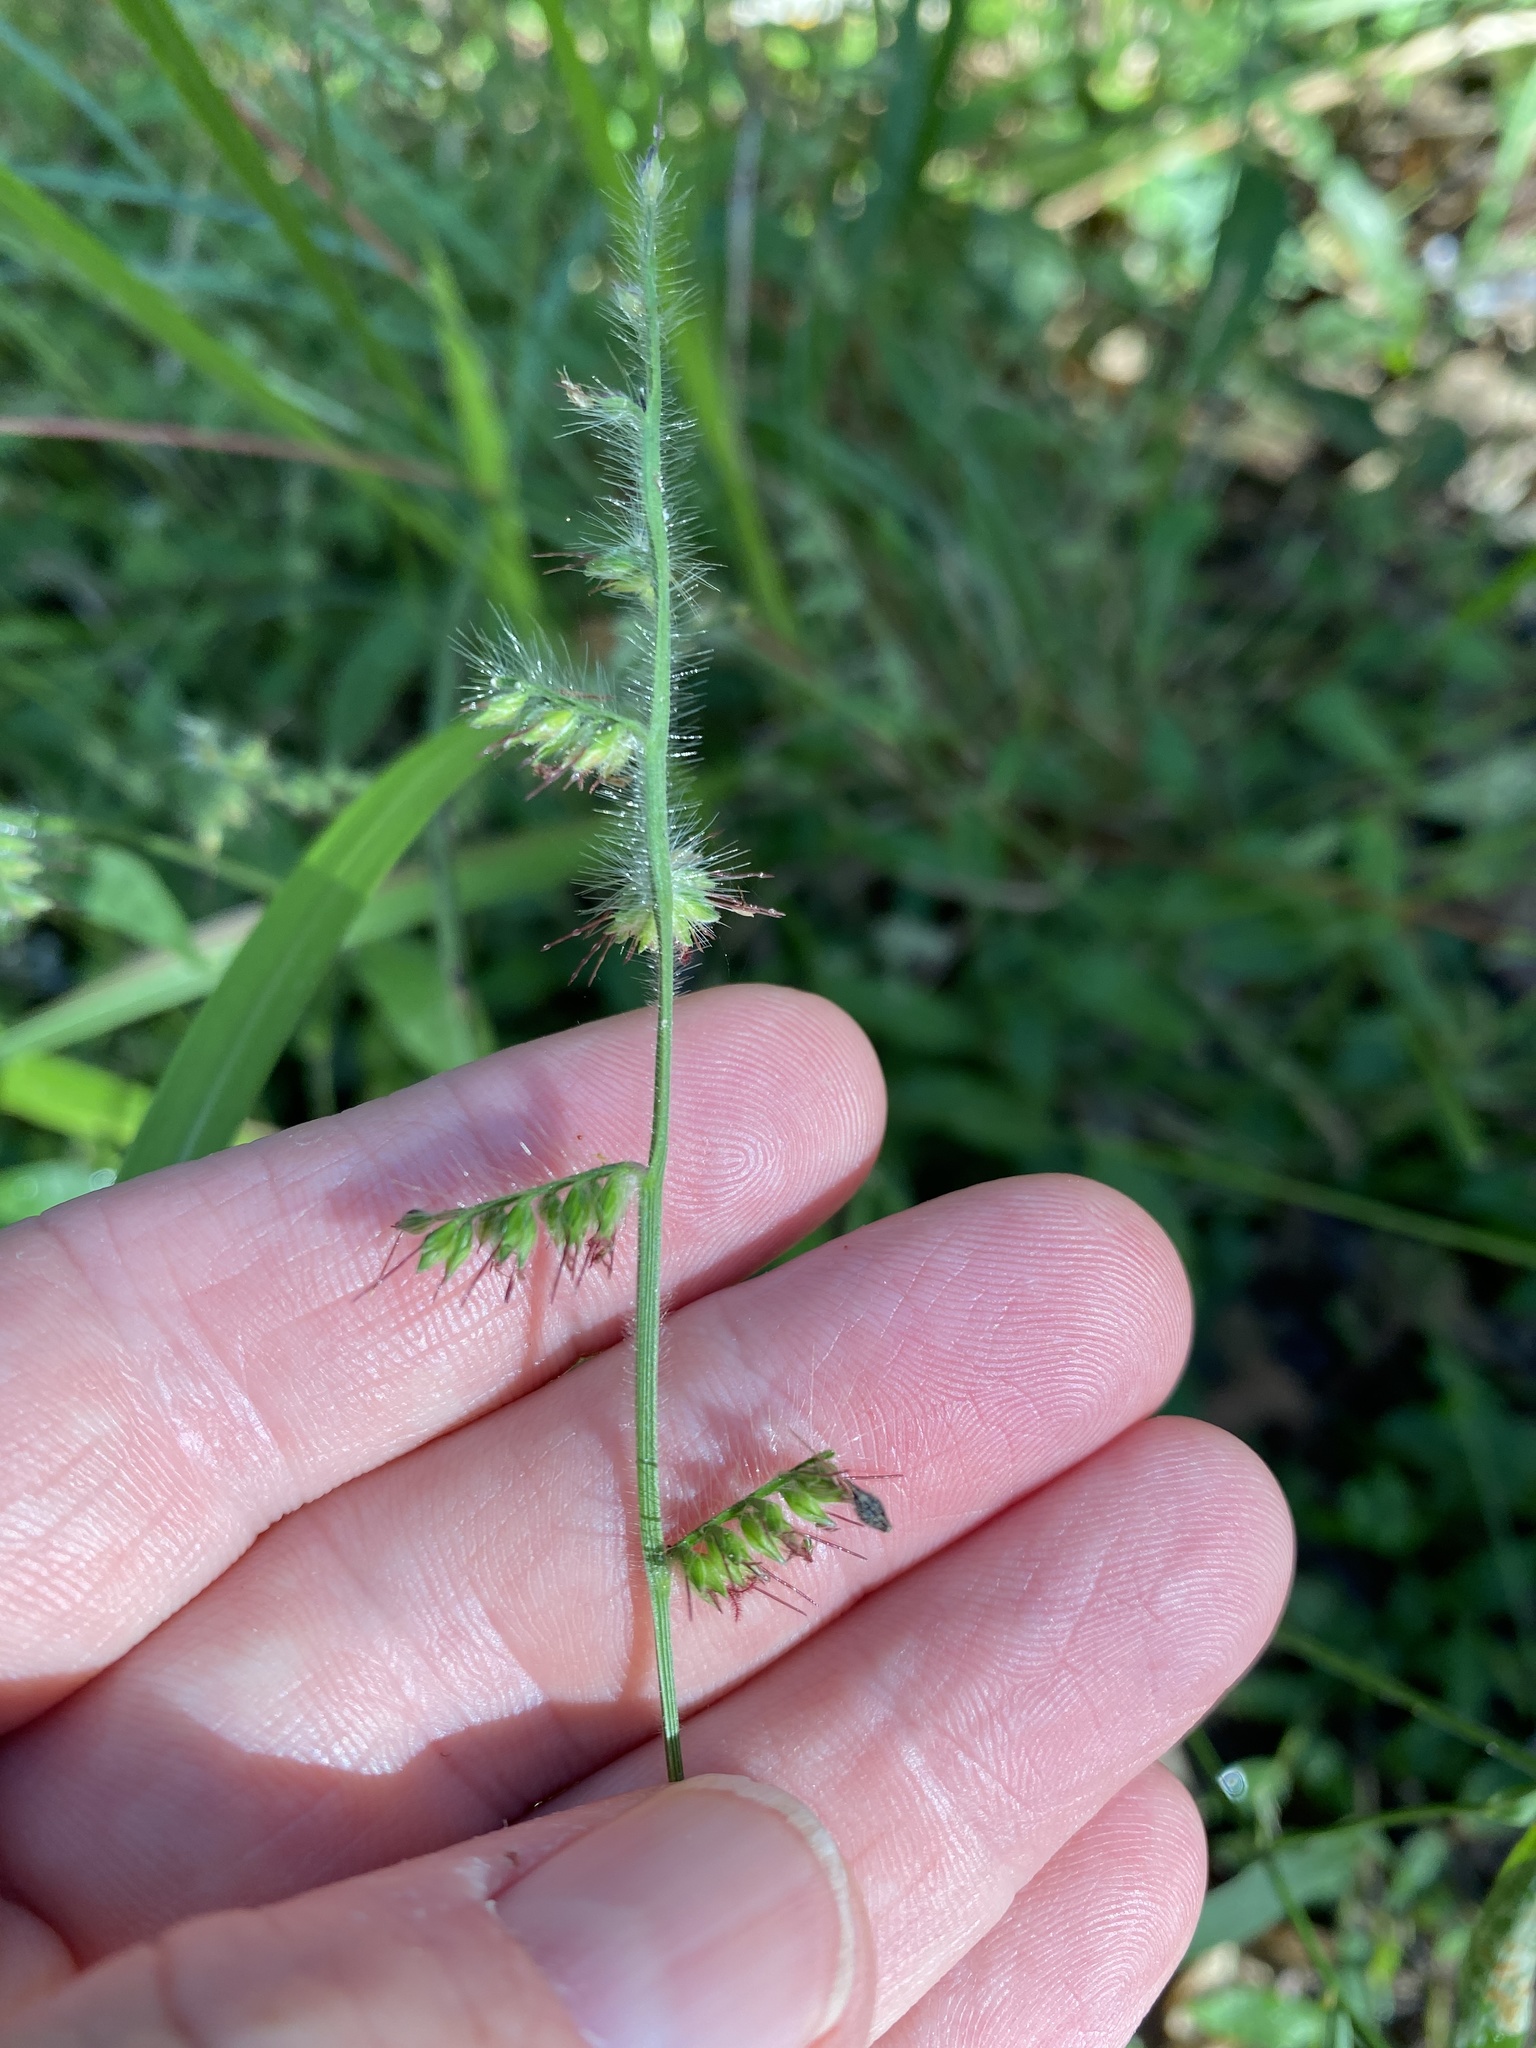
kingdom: Plantae
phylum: Tracheophyta
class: Liliopsida
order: Poales
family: Poaceae
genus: Oplismenus
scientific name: Oplismenus hirtellus
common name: Basketgrass
